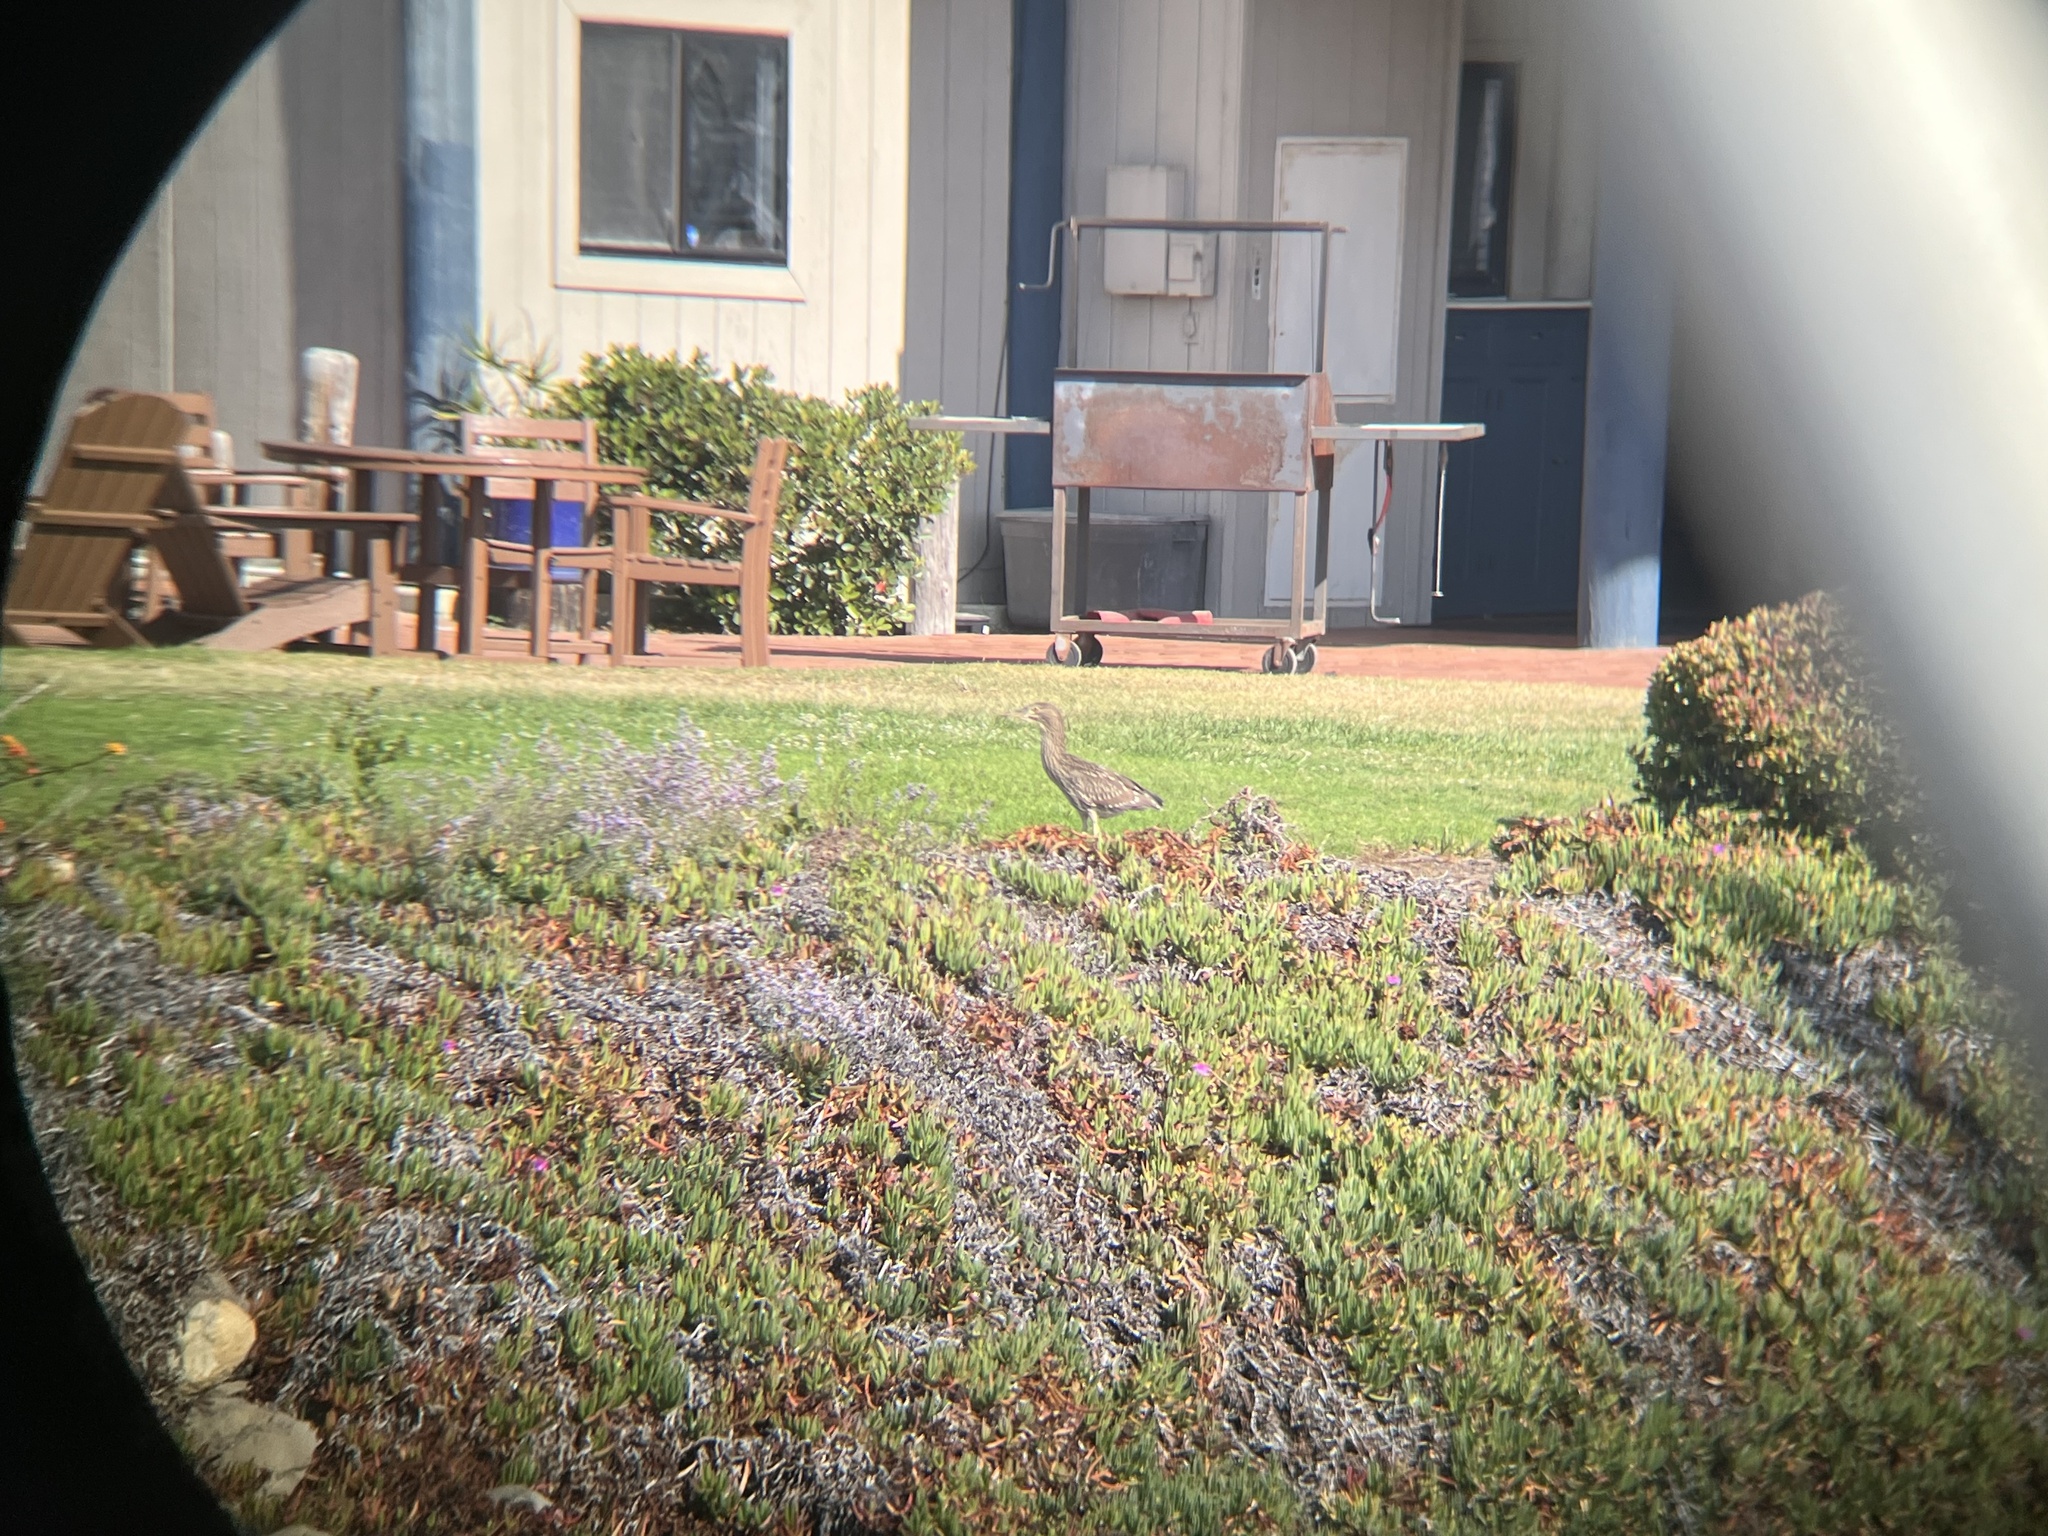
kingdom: Animalia
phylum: Chordata
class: Aves
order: Pelecaniformes
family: Ardeidae
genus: Nycticorax
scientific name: Nycticorax nycticorax
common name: Black-crowned night heron
